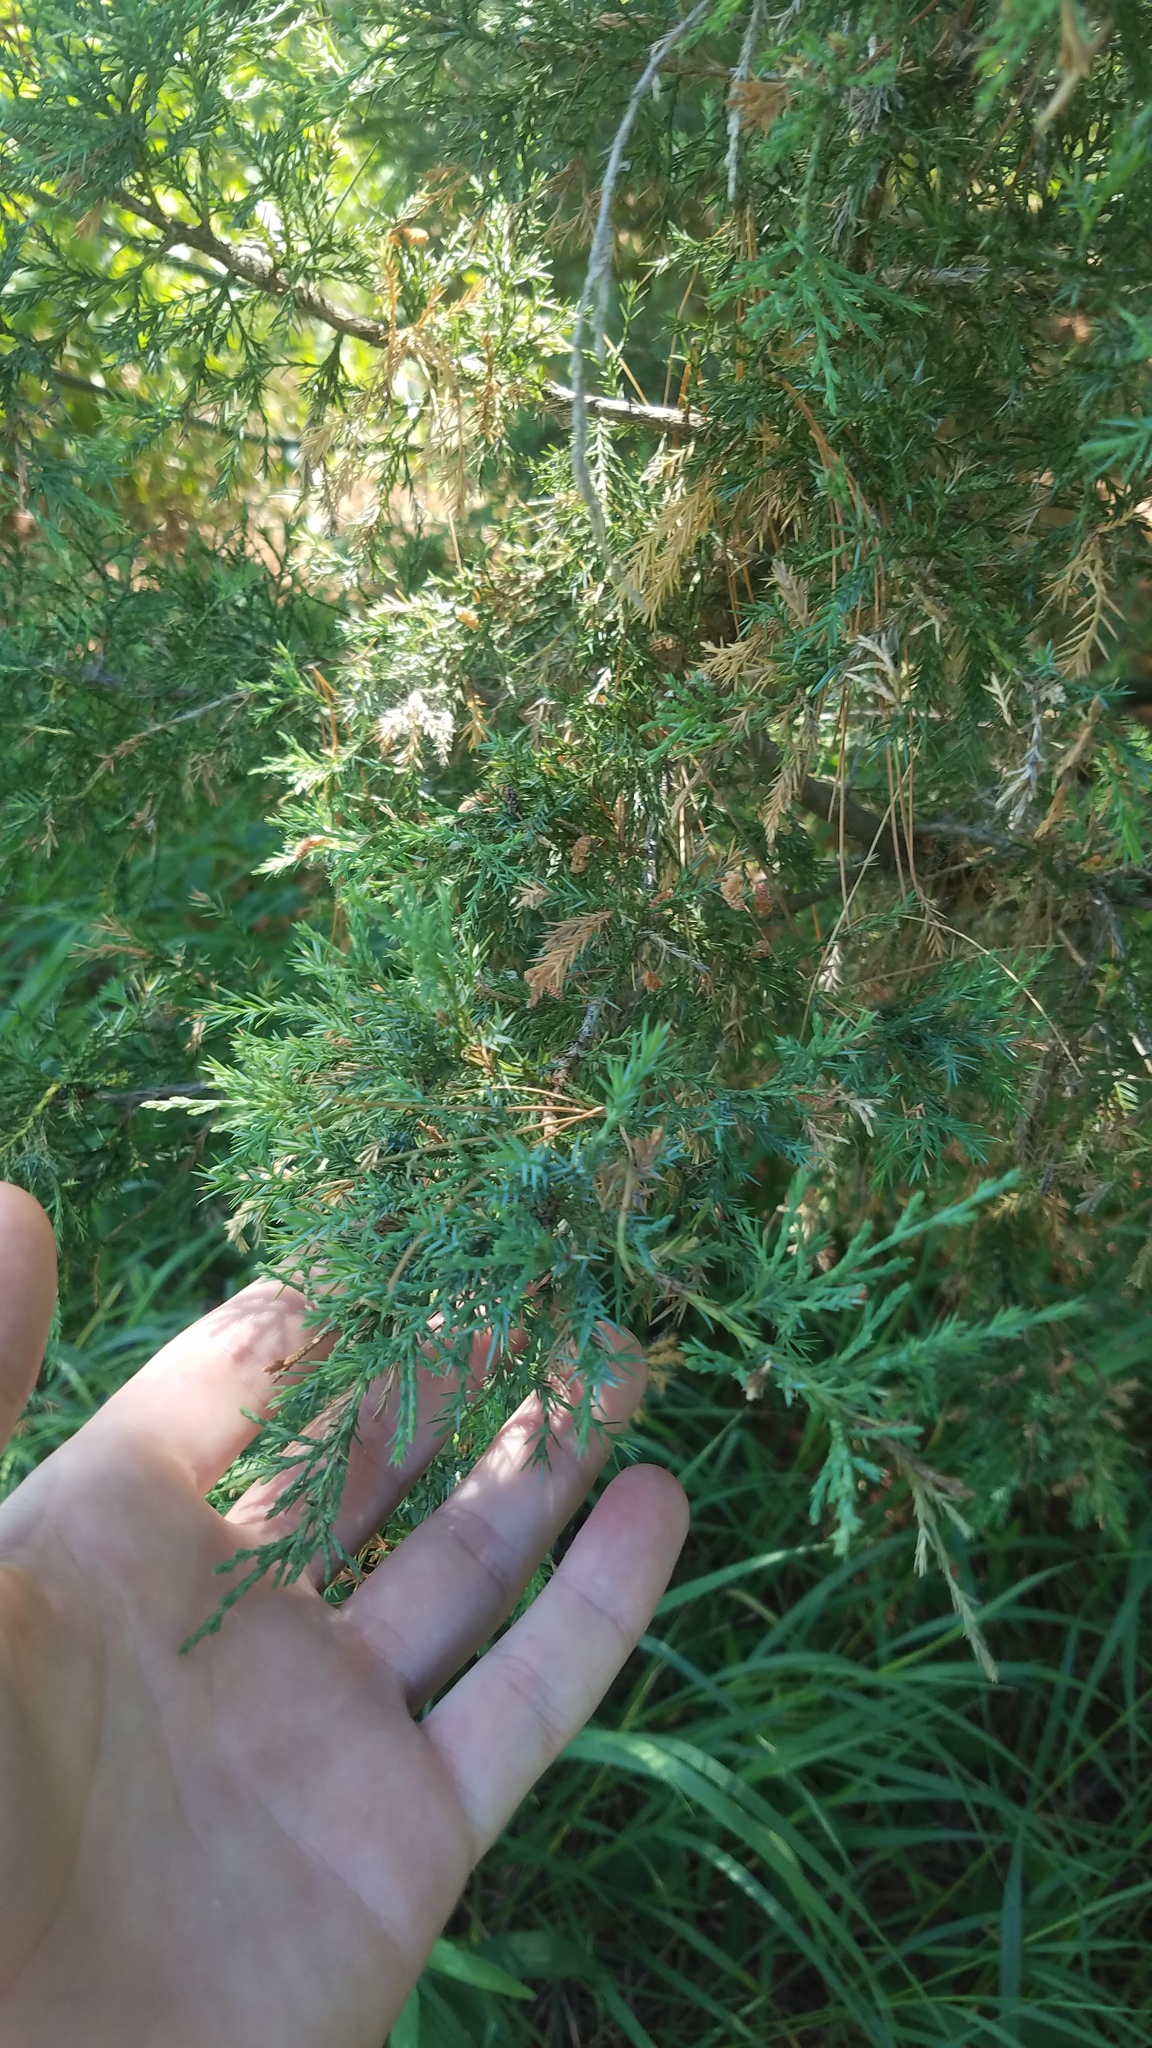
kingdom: Plantae
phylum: Tracheophyta
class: Pinopsida
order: Pinales
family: Cupressaceae
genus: Juniperus
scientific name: Juniperus virginiana
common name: Red juniper
